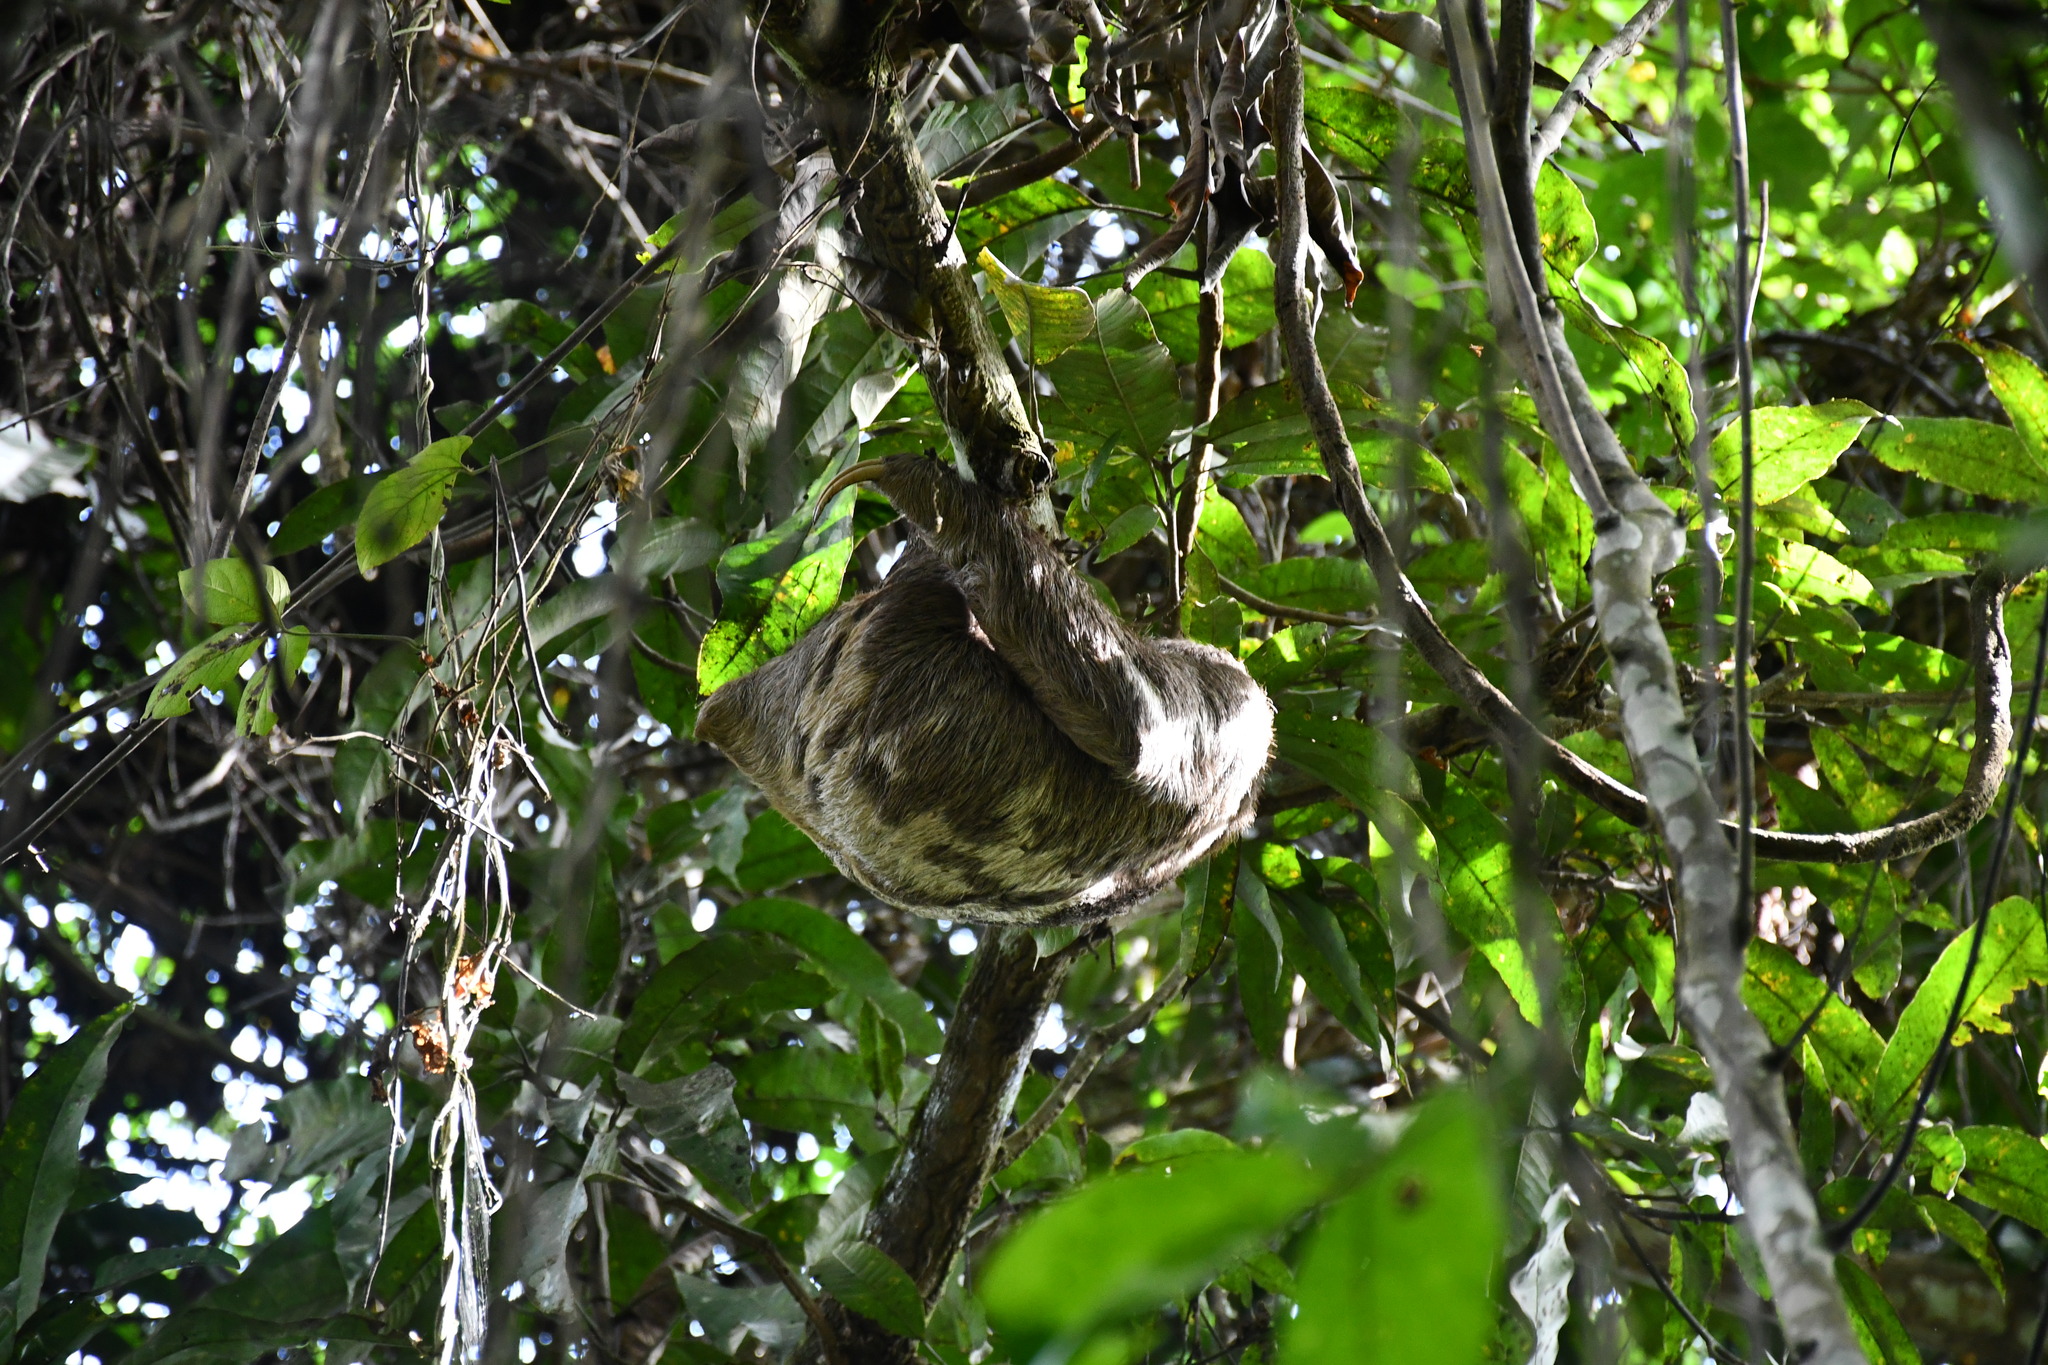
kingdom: Animalia
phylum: Chordata
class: Mammalia
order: Pilosa
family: Bradypodidae
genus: Bradypus
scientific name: Bradypus variegatus
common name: Brown-throated three-toed sloth
